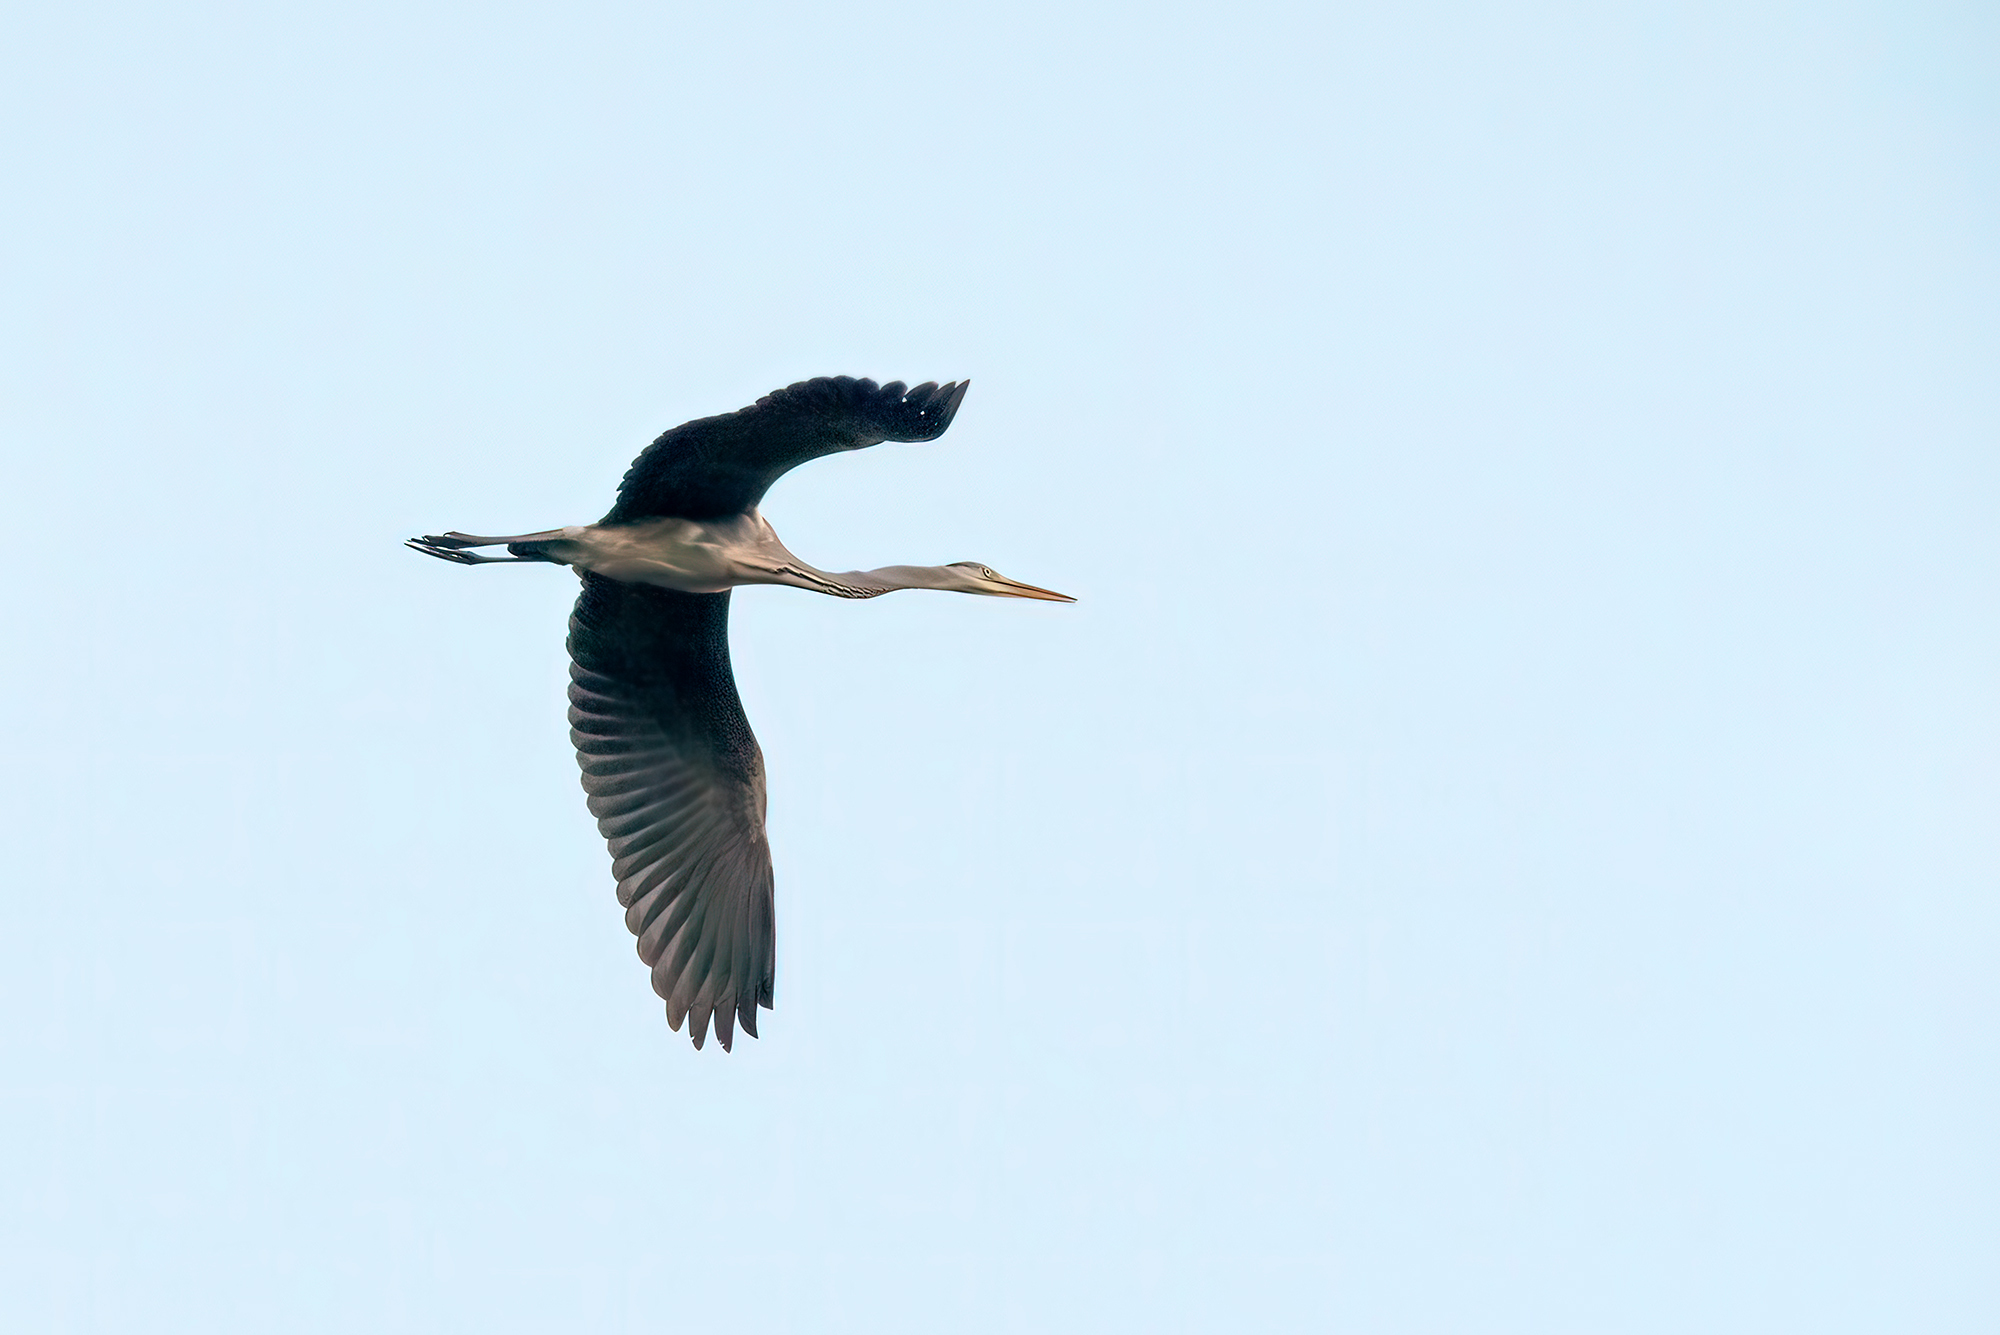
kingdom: Animalia
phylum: Chordata
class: Aves
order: Pelecaniformes
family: Ardeidae
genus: Ardea
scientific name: Ardea cinerea
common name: Grey heron
